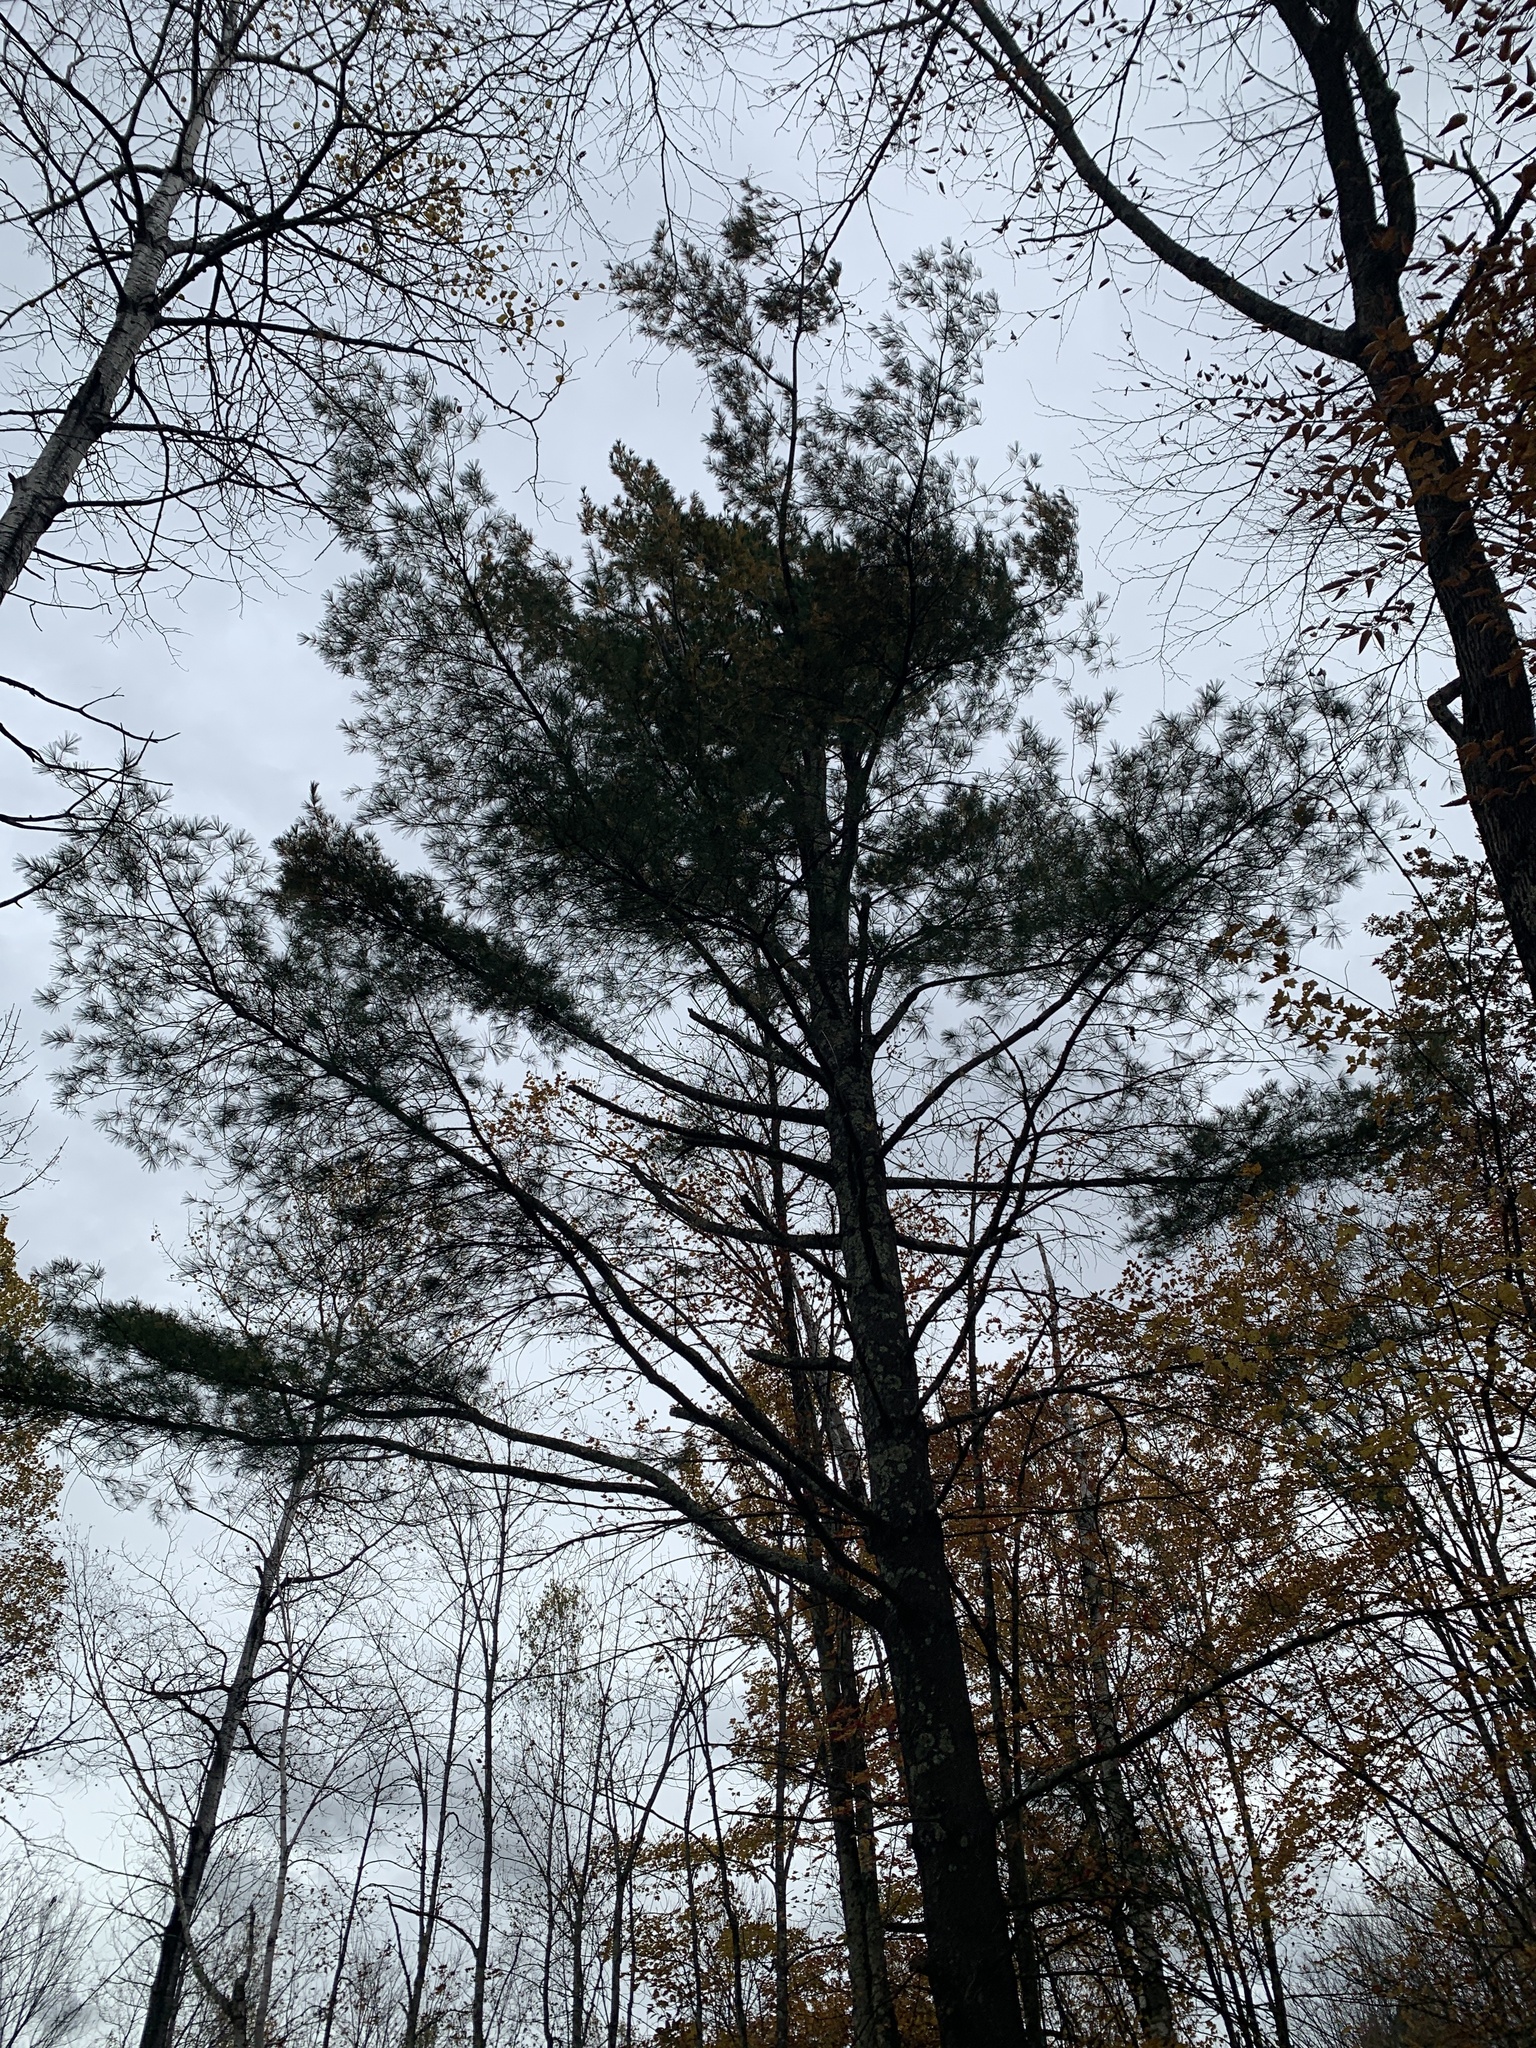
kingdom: Plantae
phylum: Tracheophyta
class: Pinopsida
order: Pinales
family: Pinaceae
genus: Pinus
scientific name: Pinus strobus
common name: Weymouth pine
